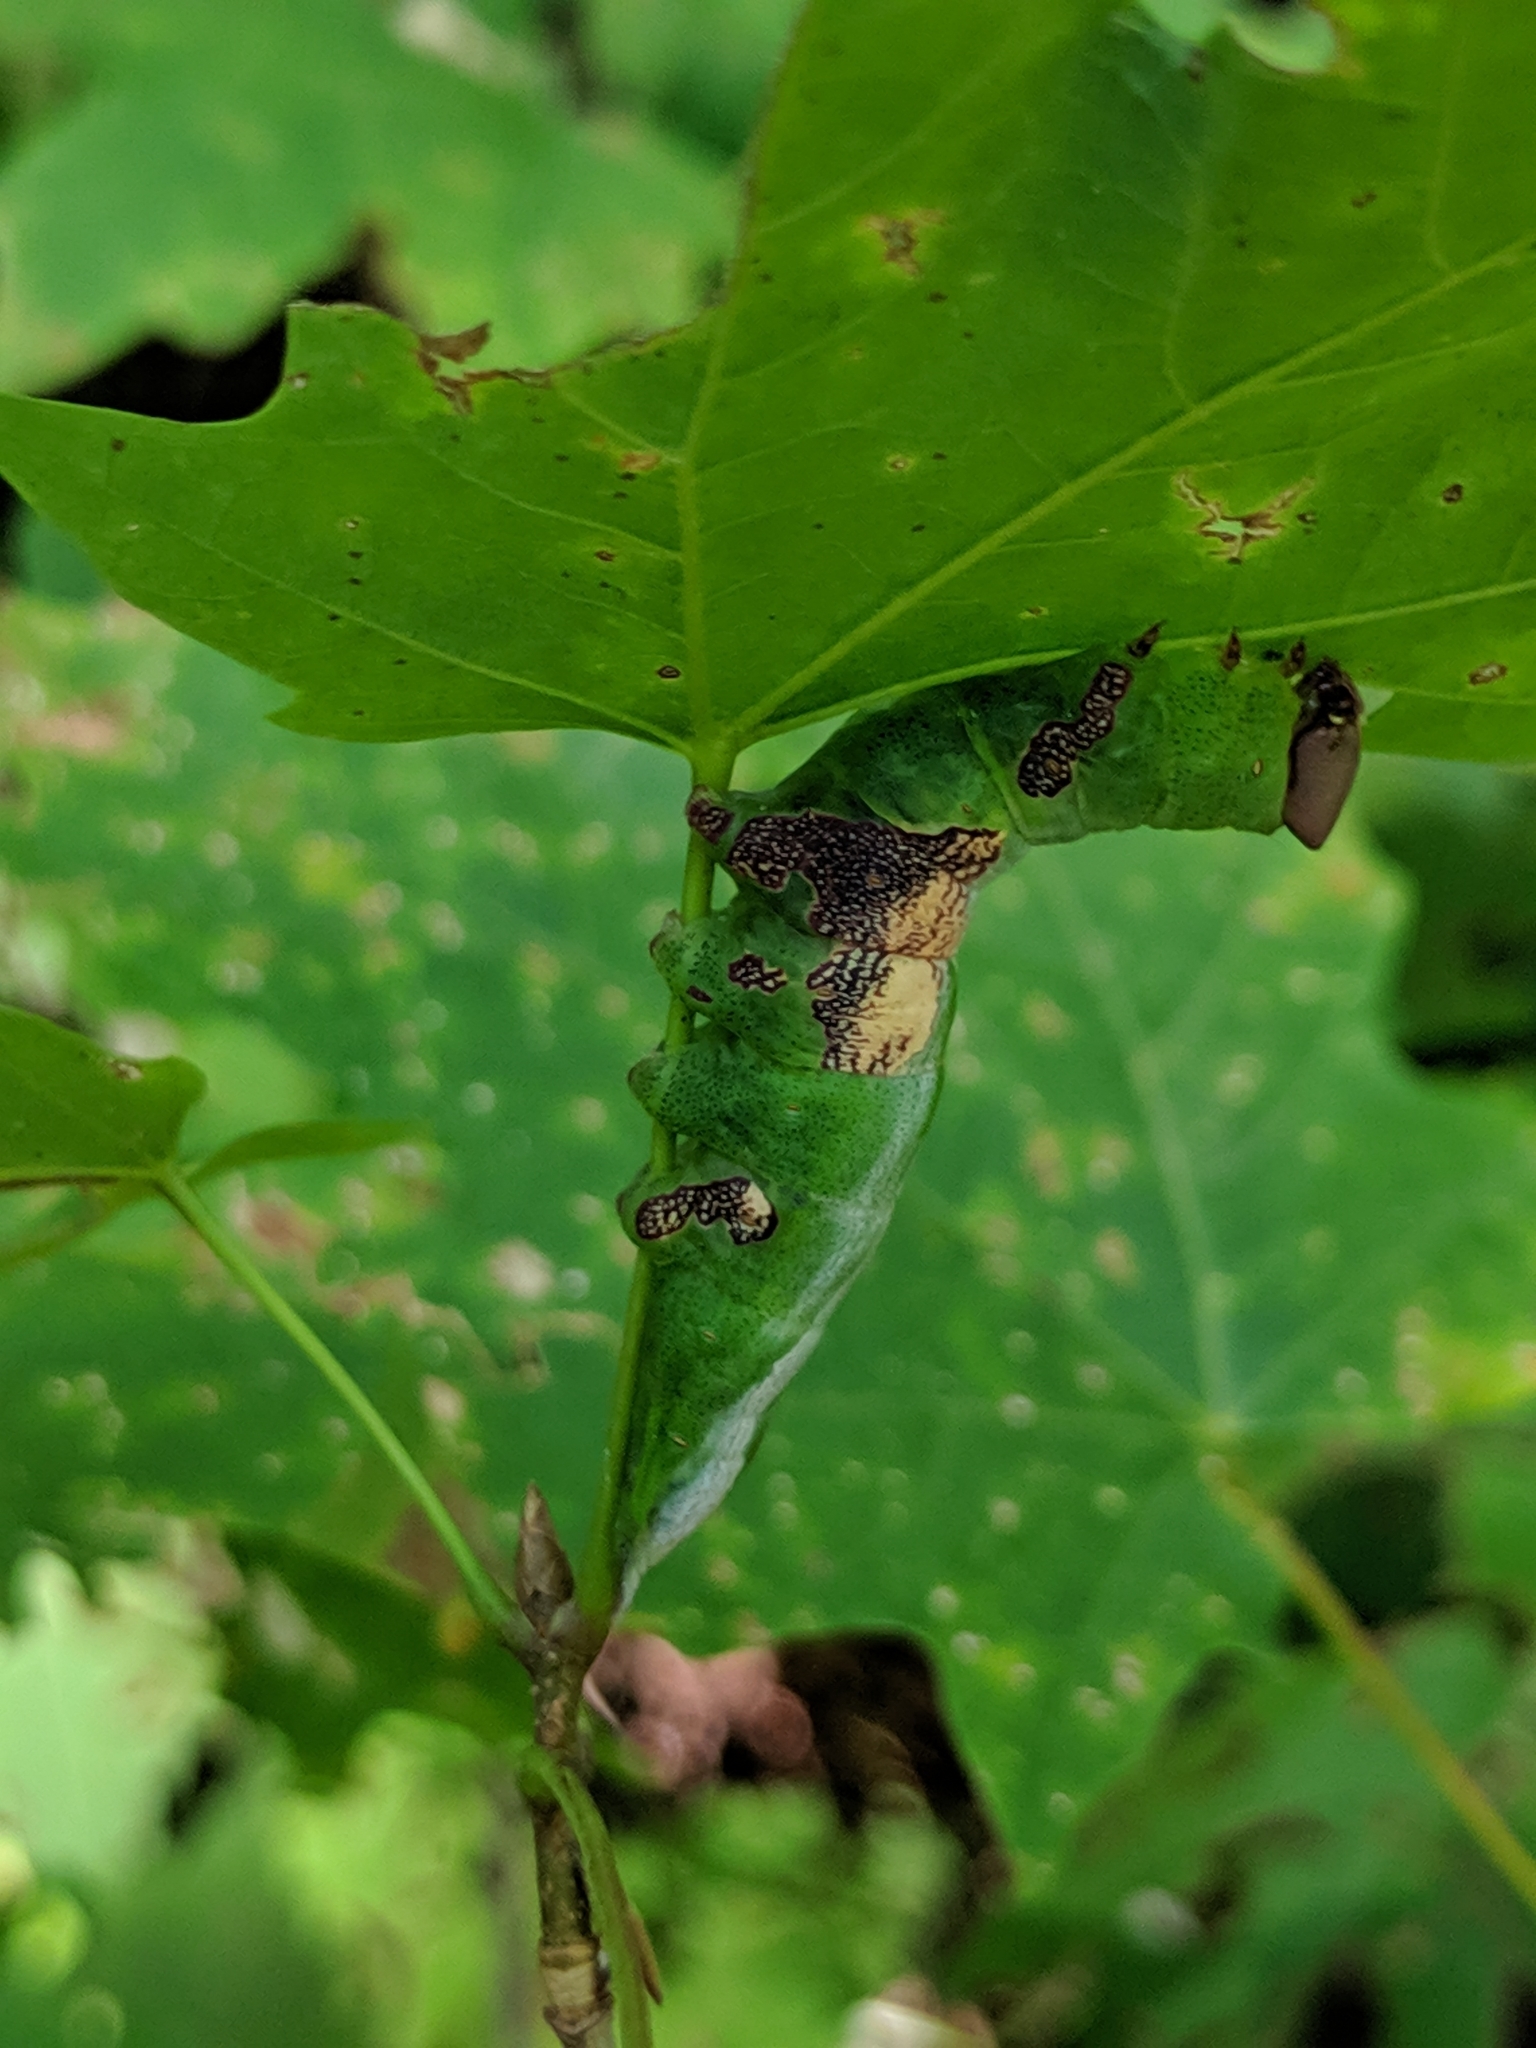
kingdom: Animalia
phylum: Arthropoda
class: Insecta
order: Lepidoptera
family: Notodontidae
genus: Disphragis
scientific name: Disphragis Cecrita biundata
